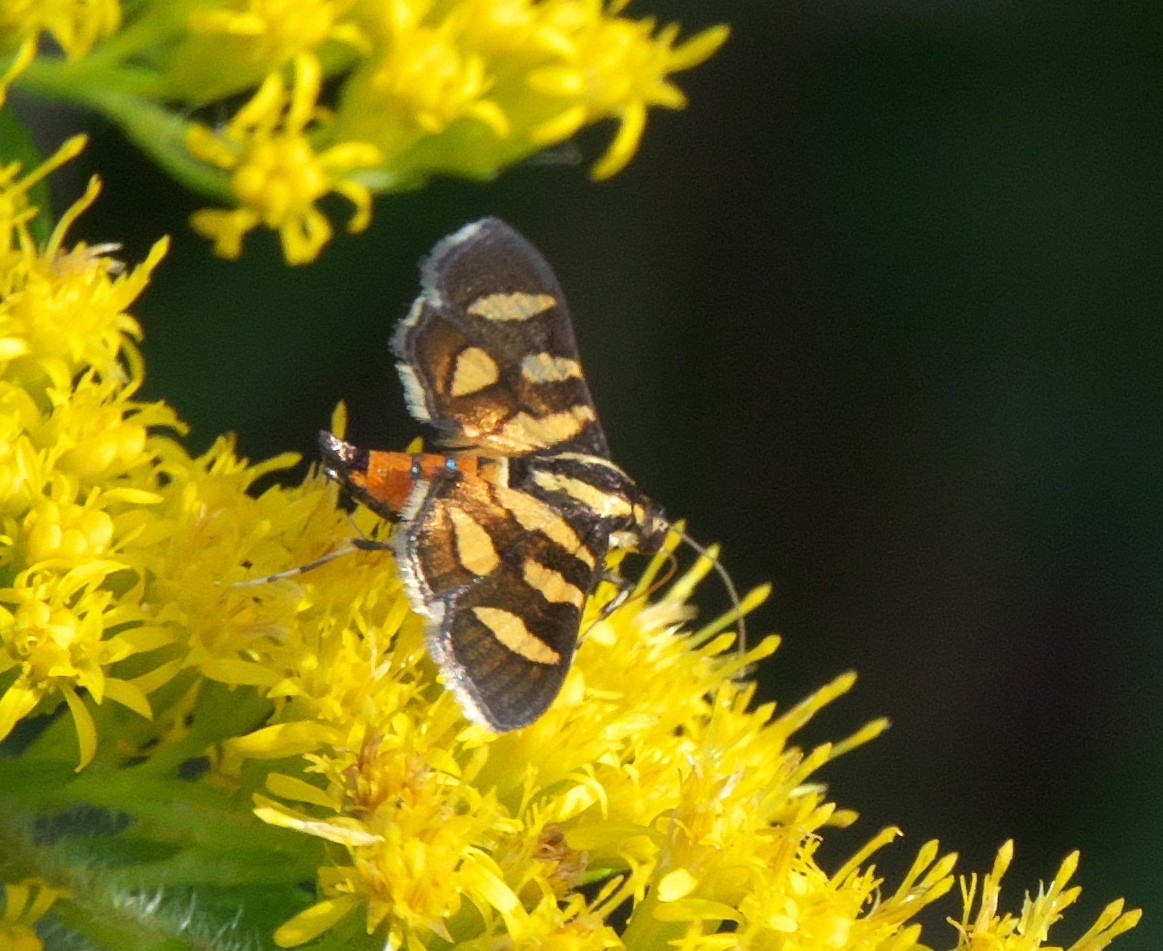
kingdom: Animalia
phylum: Arthropoda
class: Insecta
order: Lepidoptera
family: Crambidae
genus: Syngamia
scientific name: Syngamia florella
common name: Orange-spotted flower moth
